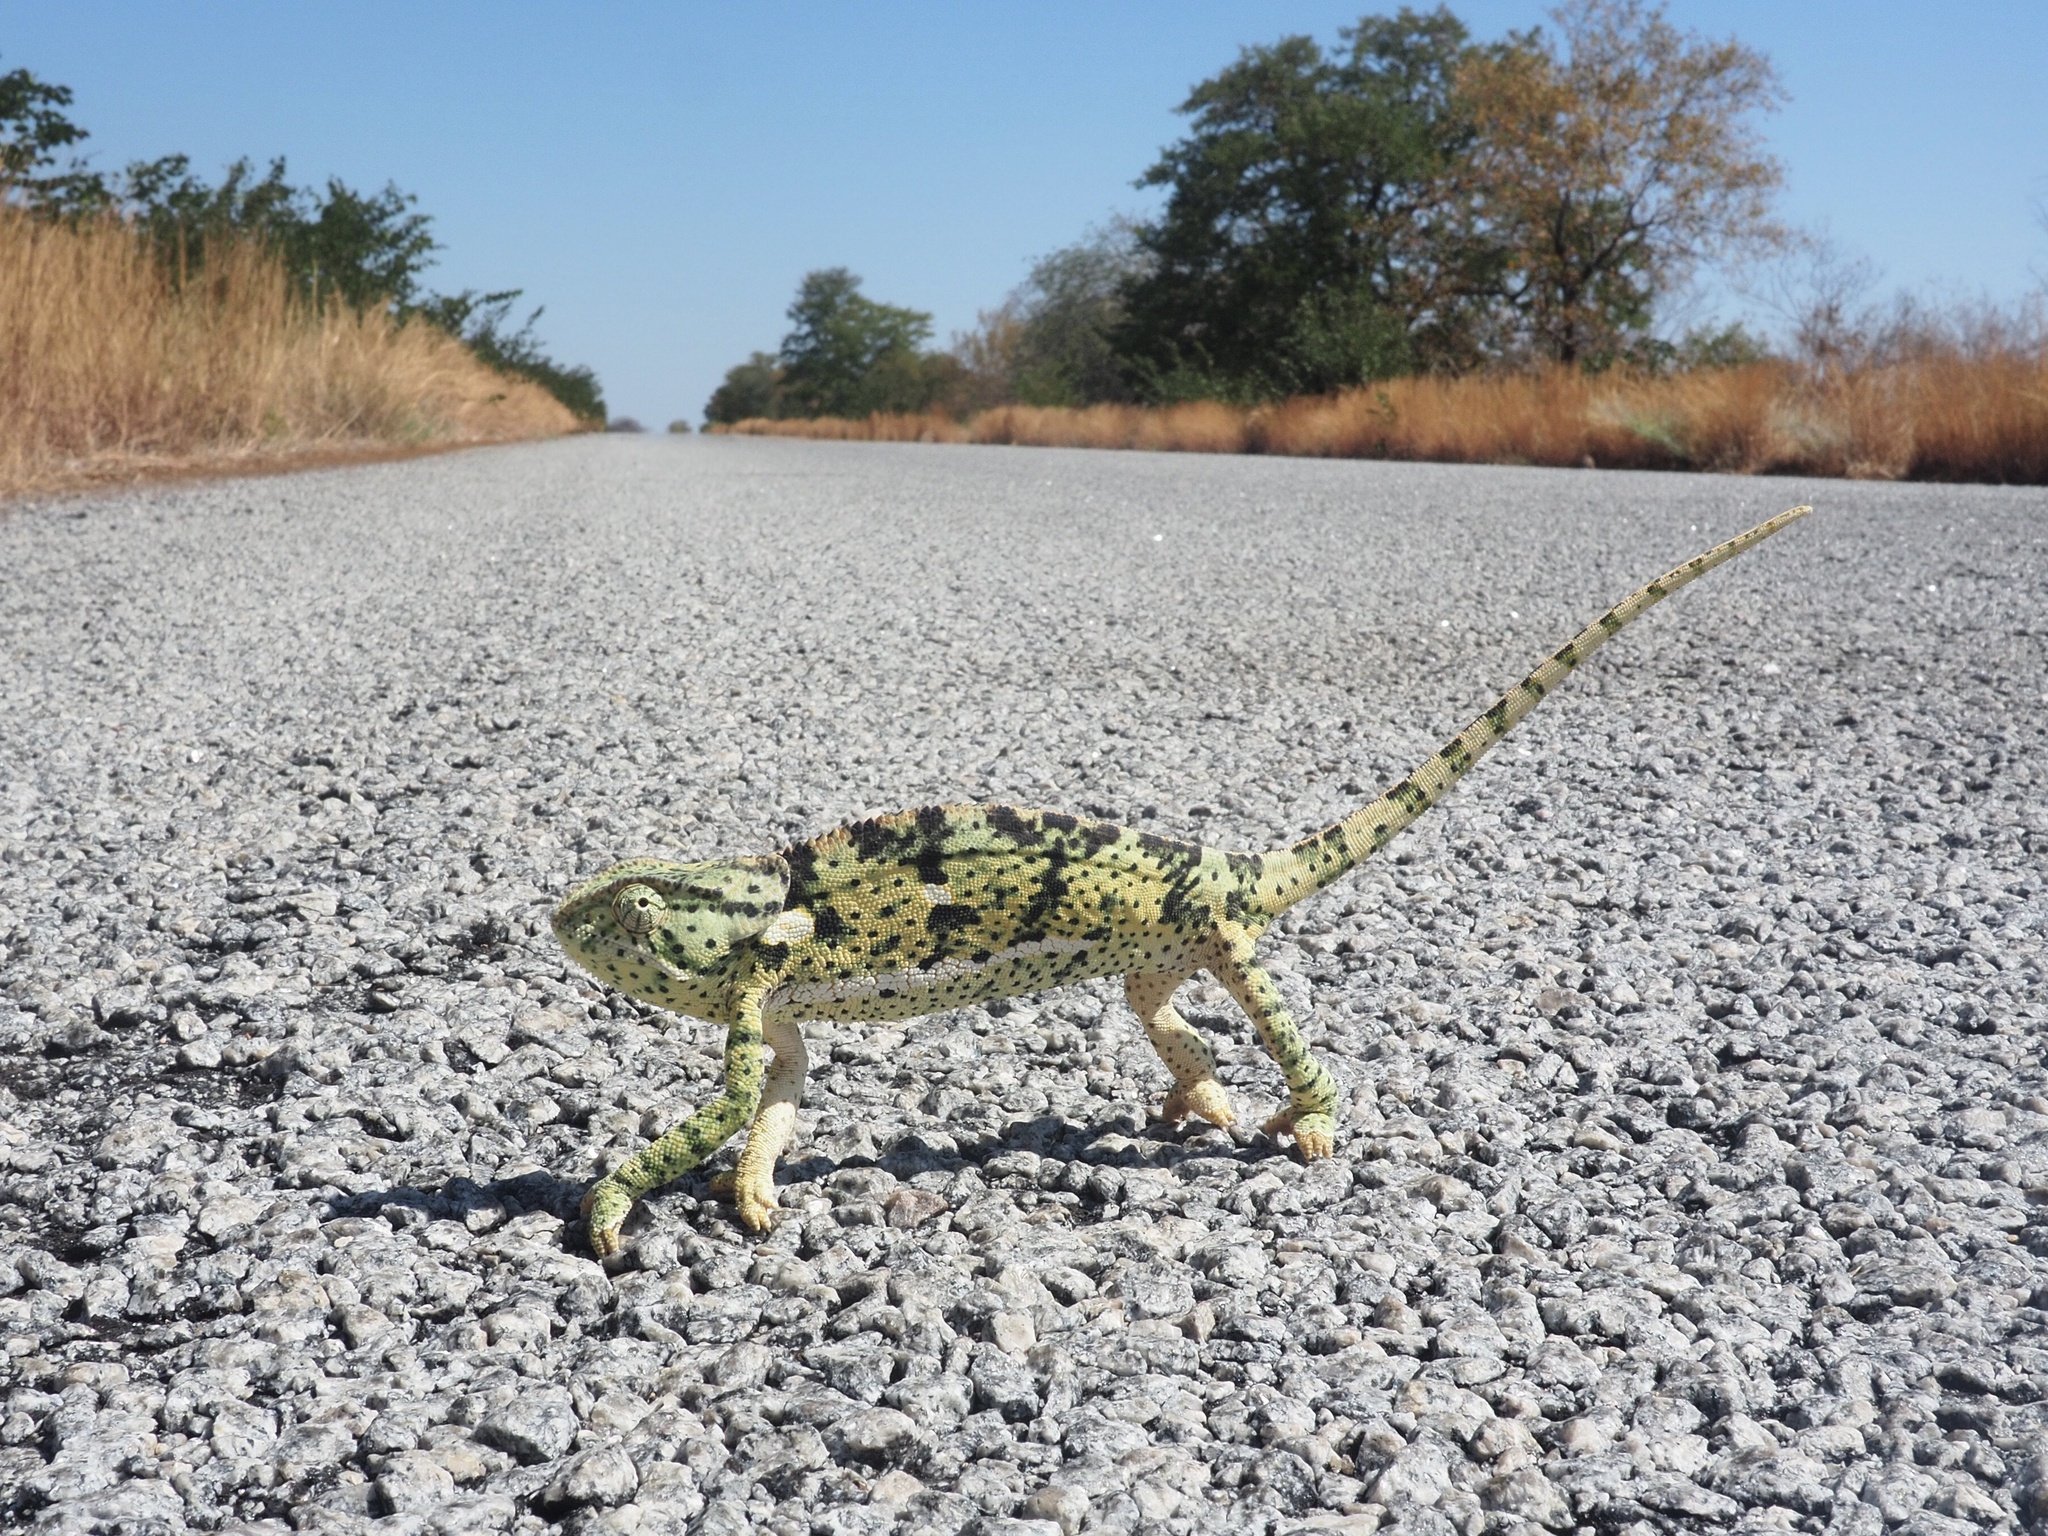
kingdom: Animalia
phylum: Chordata
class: Squamata
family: Chamaeleonidae
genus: Chamaeleo
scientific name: Chamaeleo dilepis
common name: Flapneck chameleon
